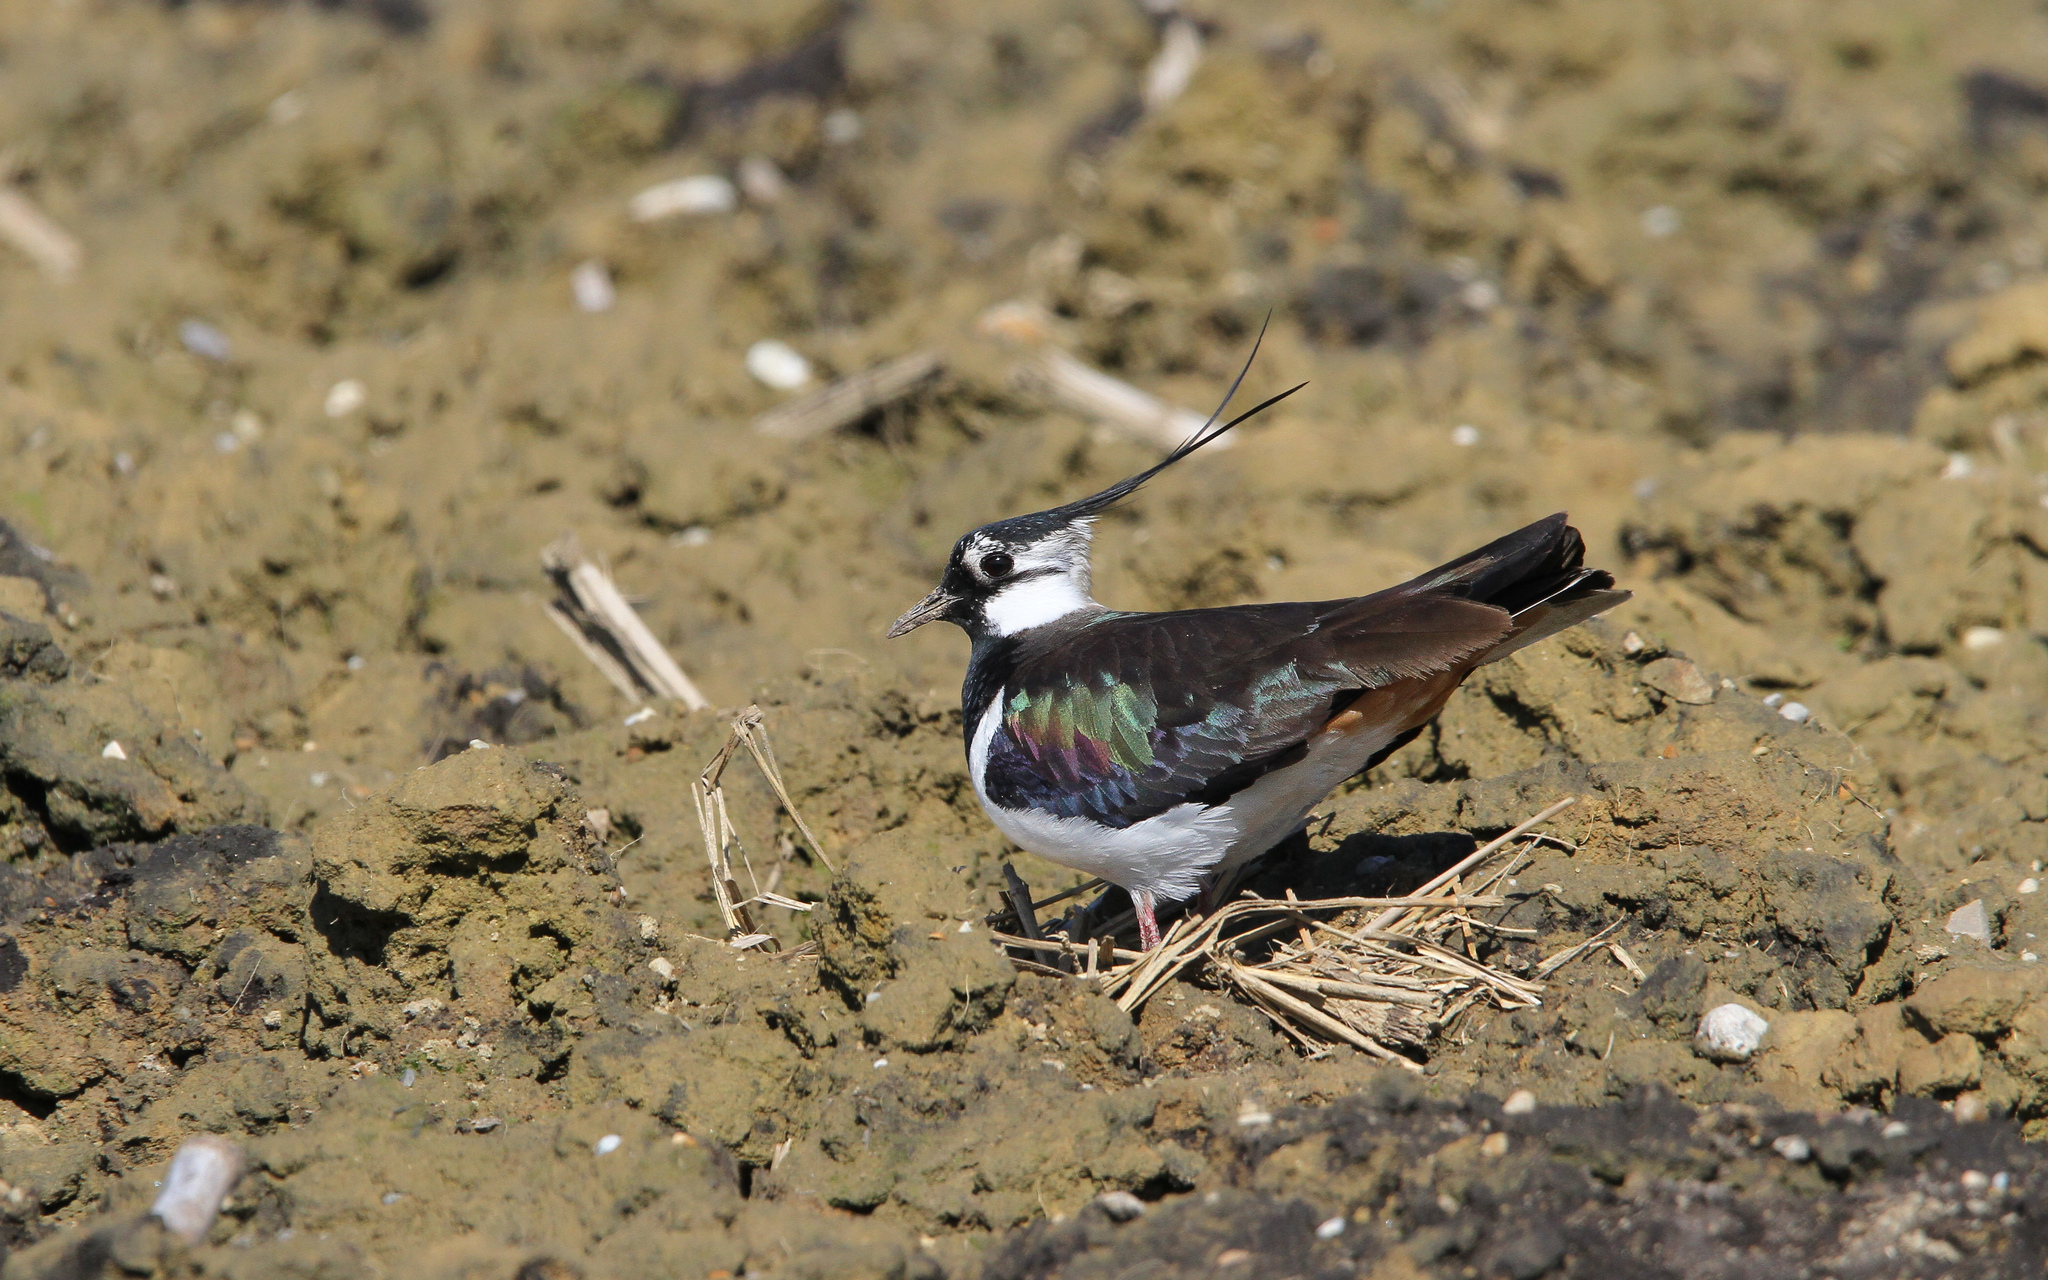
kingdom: Animalia
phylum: Chordata
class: Aves
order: Charadriiformes
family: Charadriidae
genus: Vanellus
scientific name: Vanellus vanellus
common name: Northern lapwing
